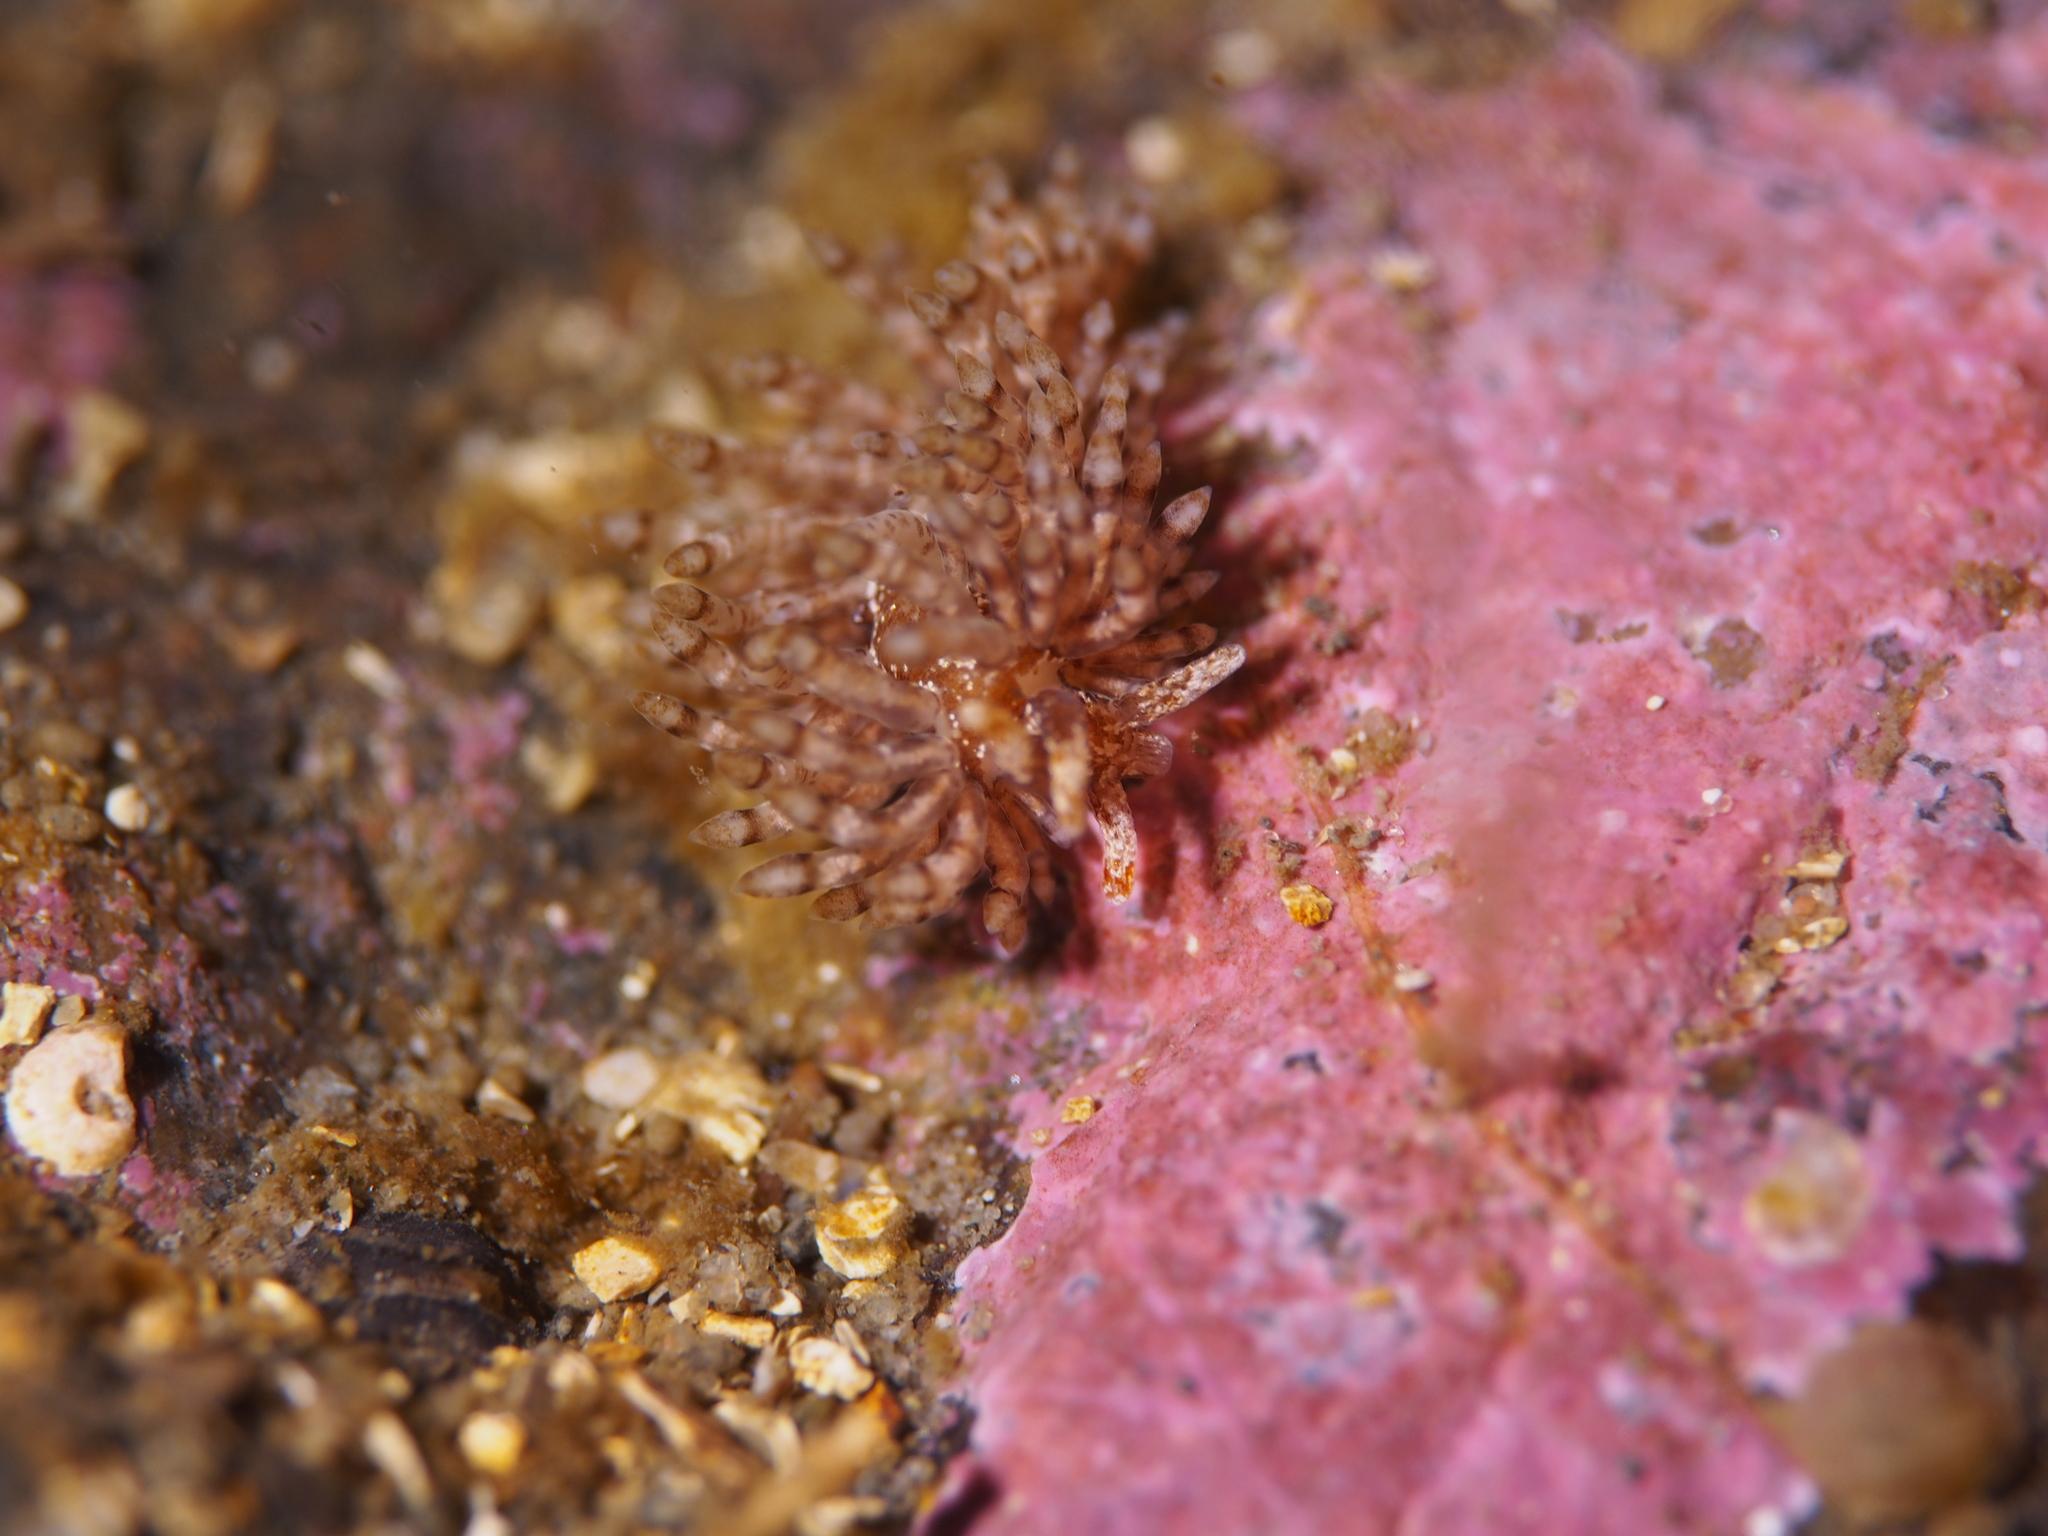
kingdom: Animalia
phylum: Mollusca
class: Gastropoda
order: Nudibranchia
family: Eubranchidae
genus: Eubranchus
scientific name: Eubranchus vittatus
